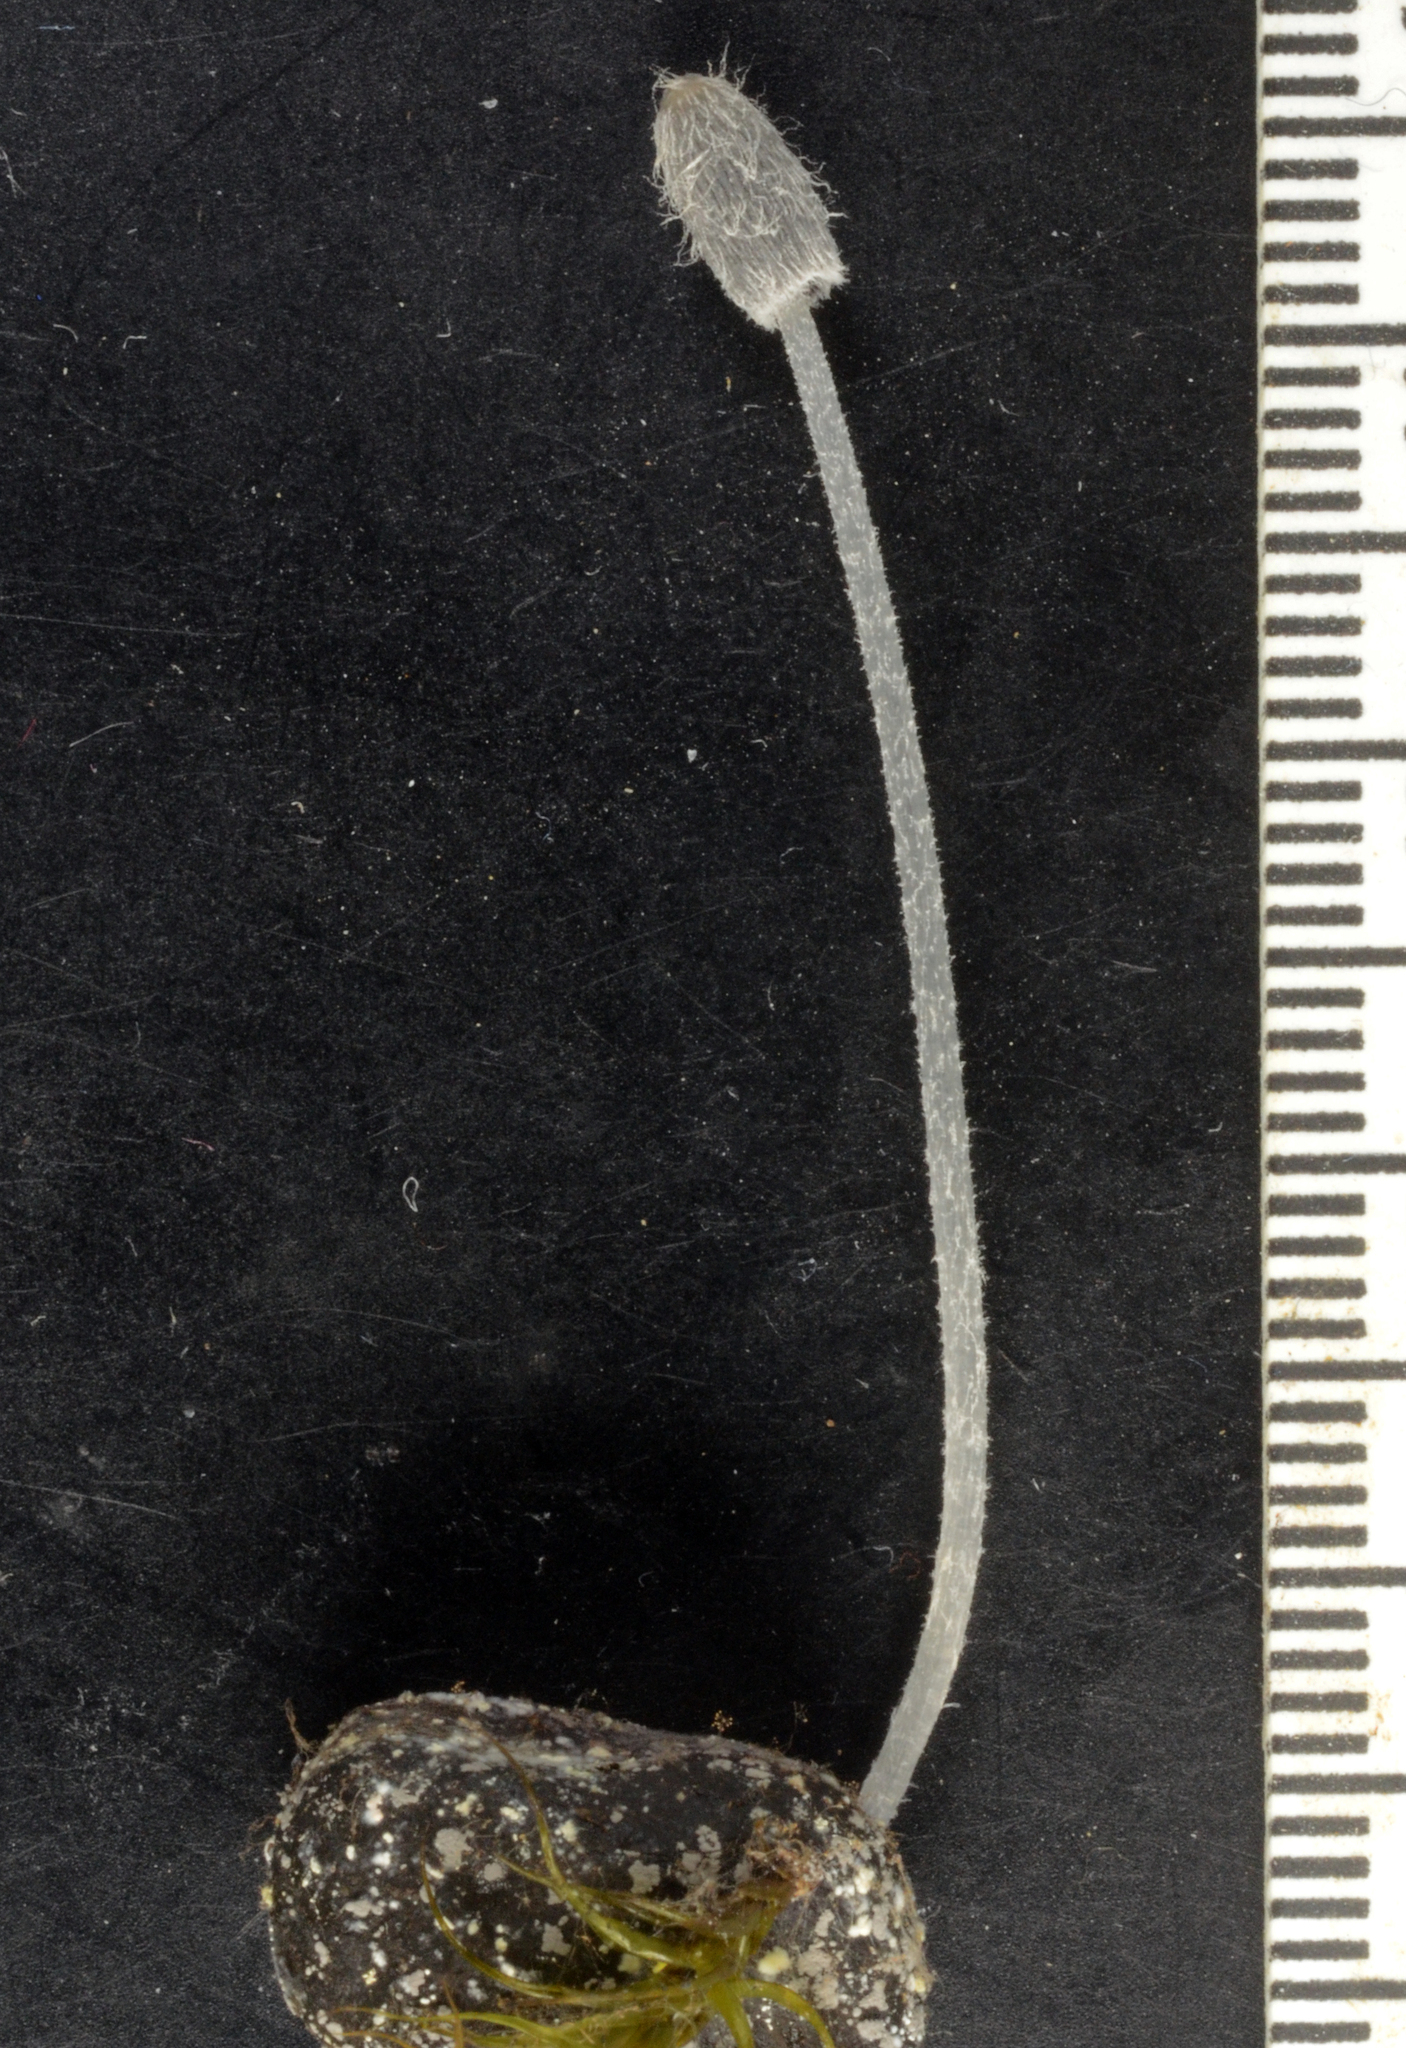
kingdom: Fungi
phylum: Basidiomycota
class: Agaricomycetes
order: Agaricales
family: Psathyrellaceae
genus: Coprinopsis
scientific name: Coprinopsis candidolanata
